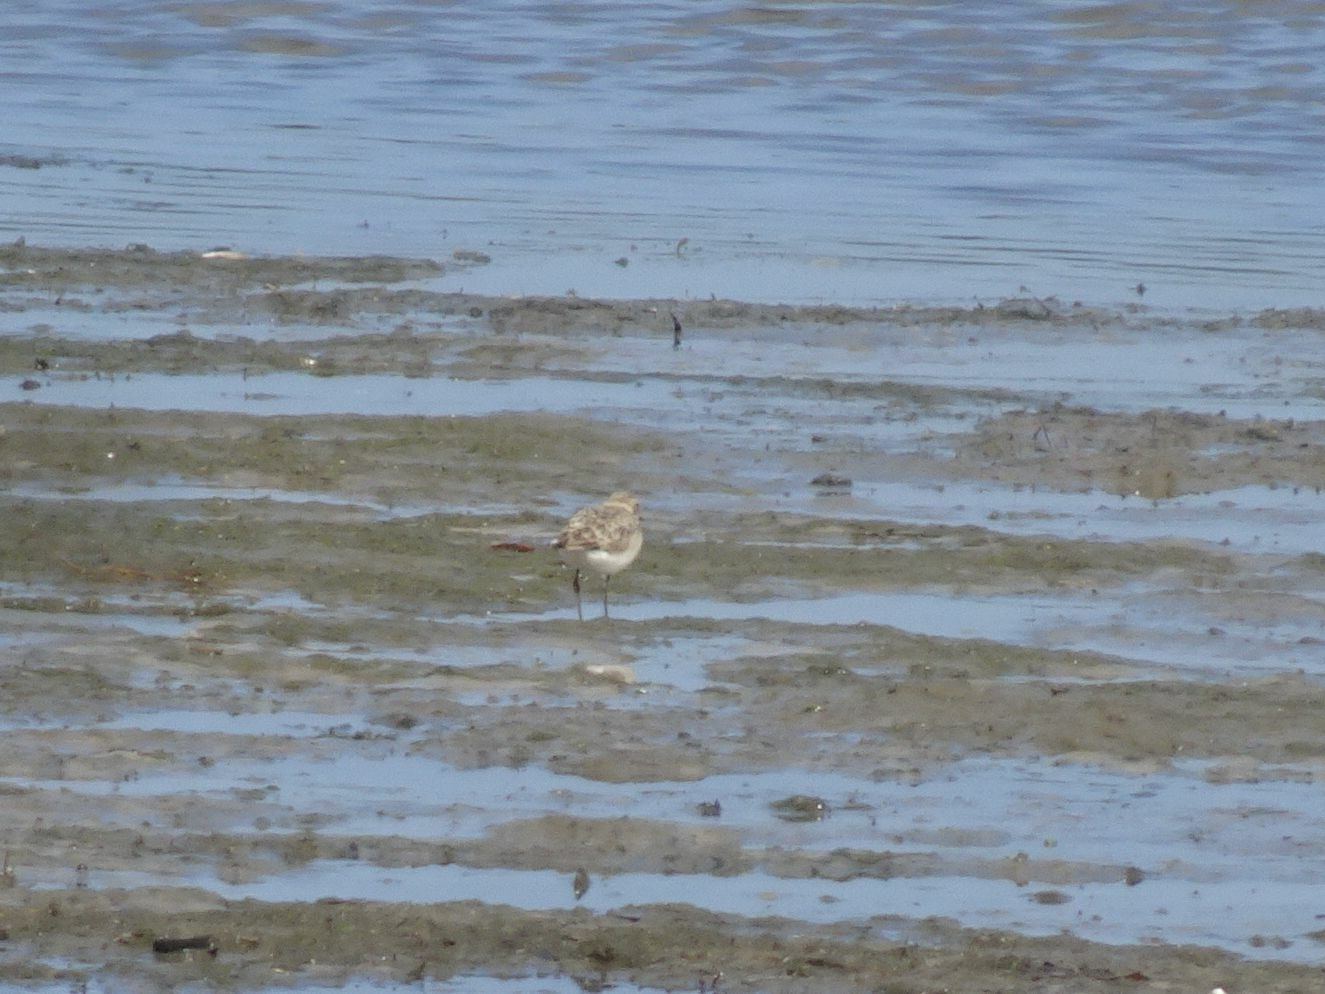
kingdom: Animalia
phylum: Chordata
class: Aves
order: Charadriiformes
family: Charadriidae
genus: Anarhynchus
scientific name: Anarhynchus
